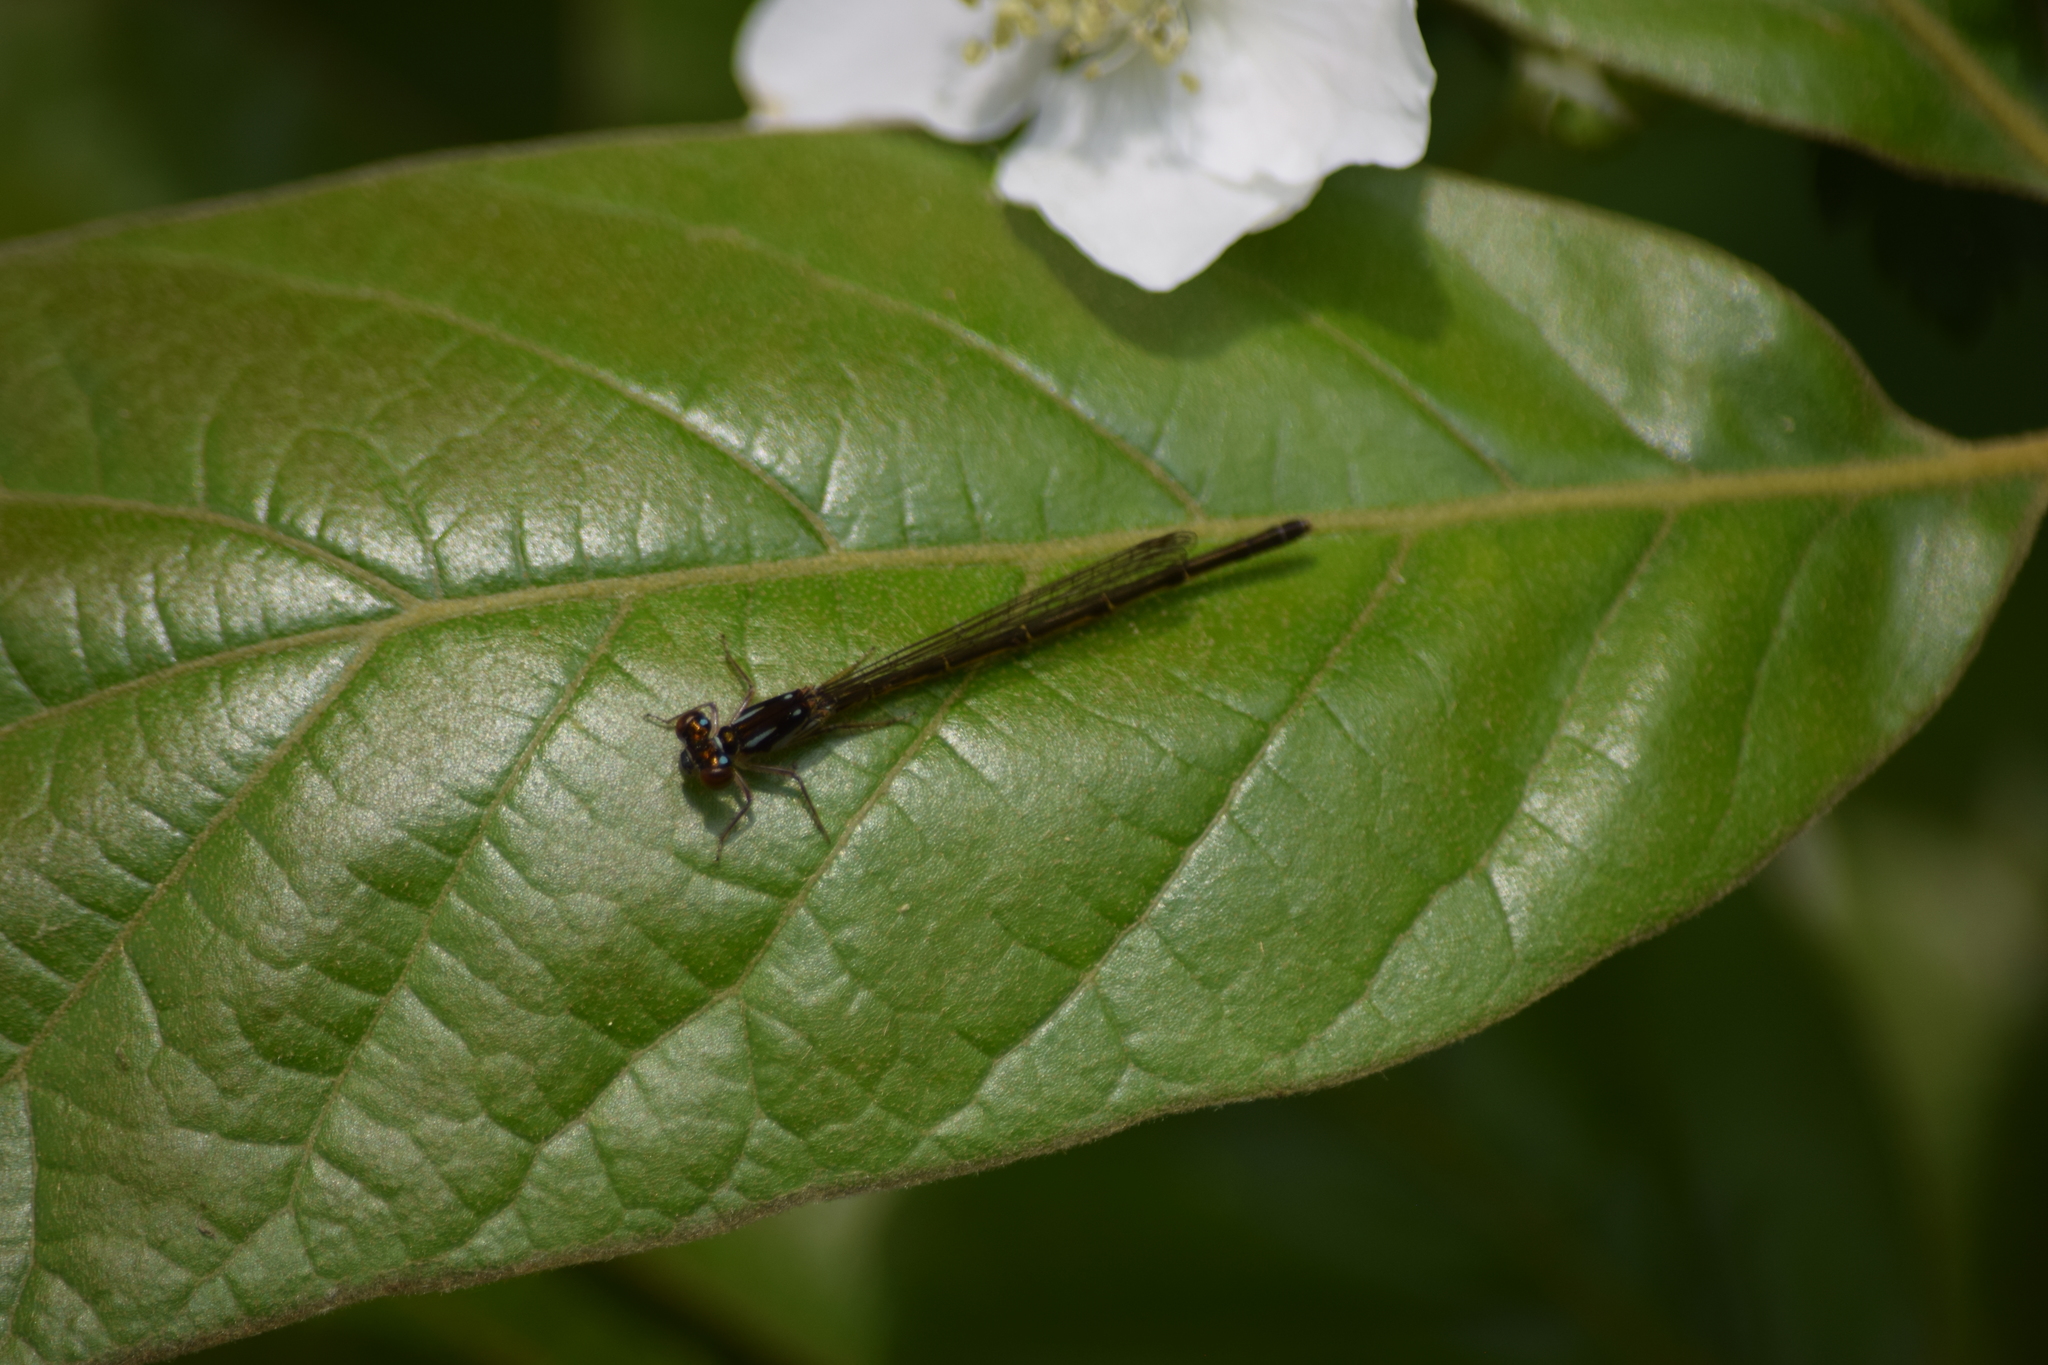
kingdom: Animalia
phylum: Arthropoda
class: Insecta
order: Odonata
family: Coenagrionidae
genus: Ischnura
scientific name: Ischnura posita
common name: Fragile forktail
